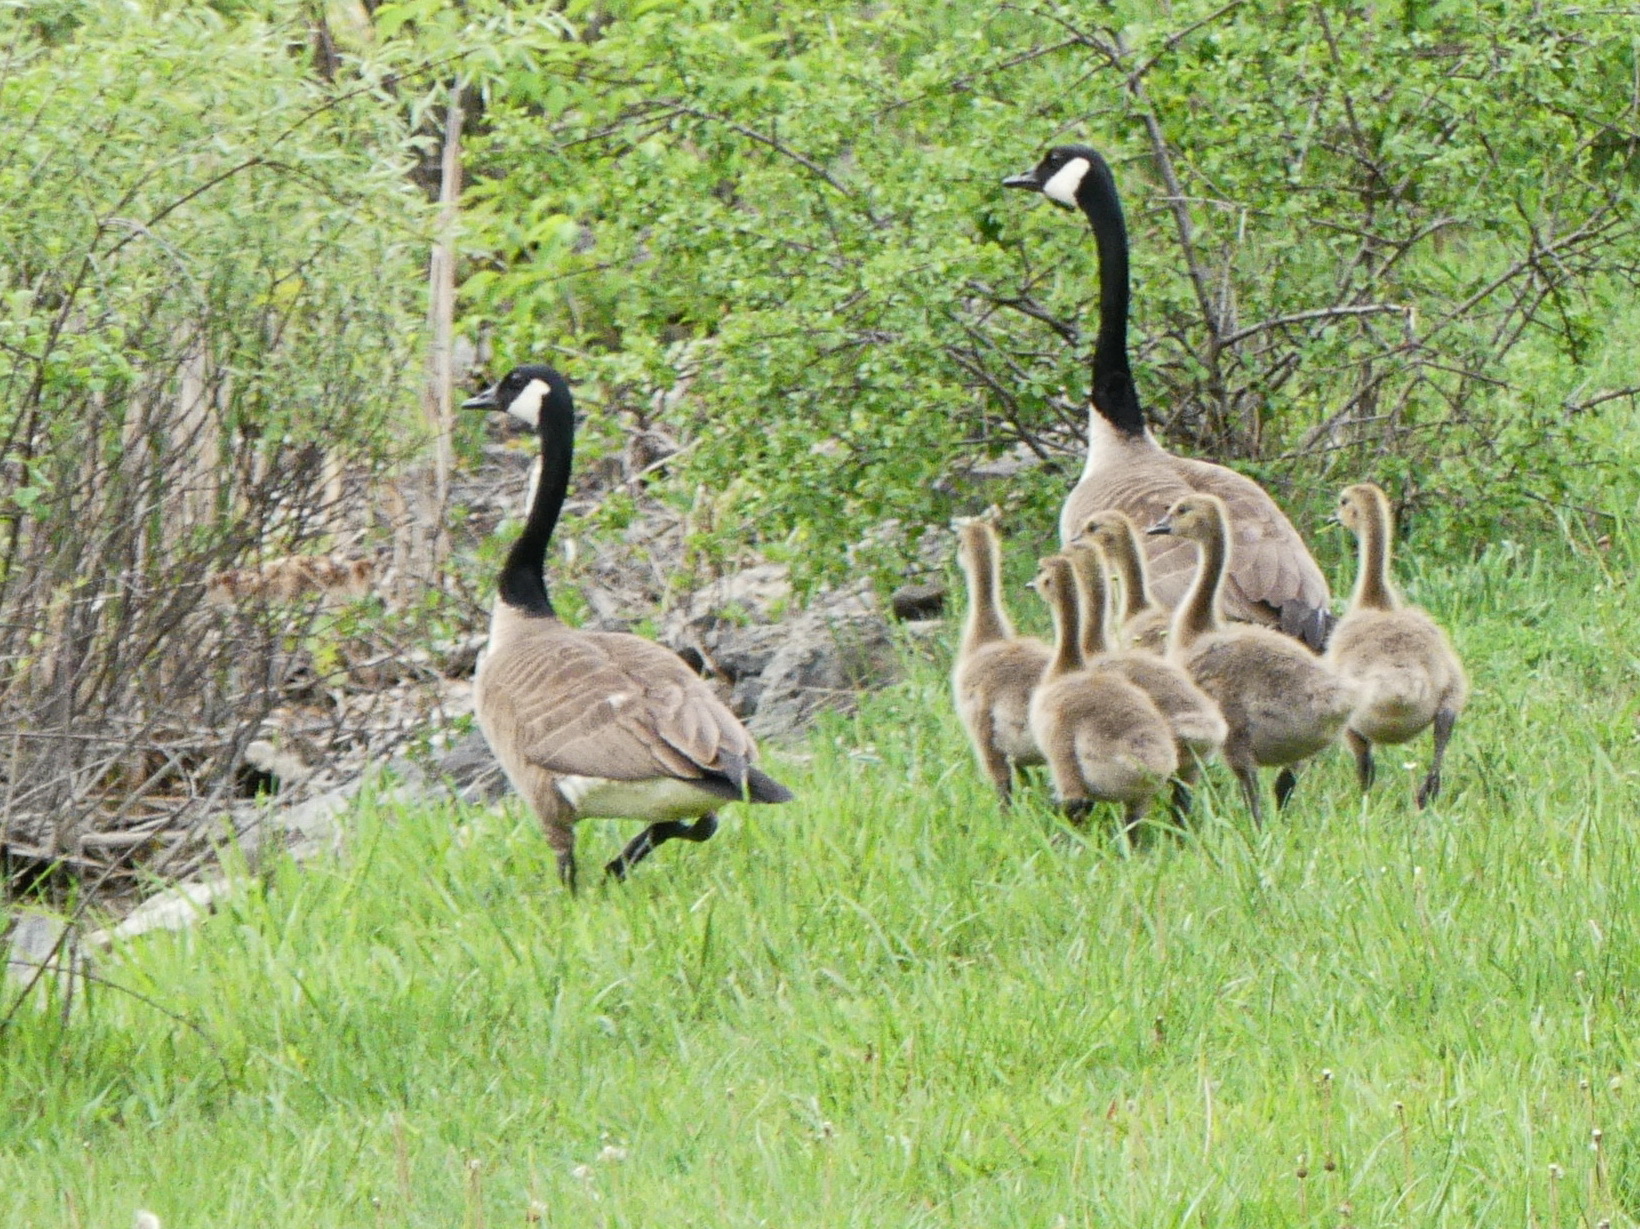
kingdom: Animalia
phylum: Chordata
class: Aves
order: Anseriformes
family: Anatidae
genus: Branta
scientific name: Branta canadensis
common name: Canada goose
